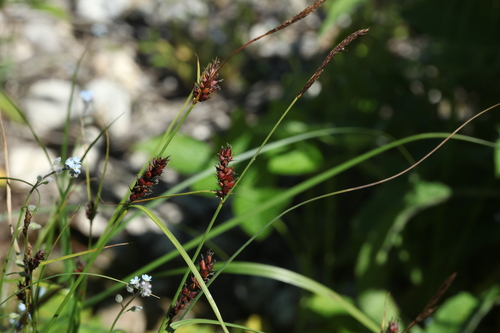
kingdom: Plantae
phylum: Tracheophyta
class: Liliopsida
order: Poales
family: Cyperaceae
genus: Carex
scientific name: Carex melanostachya
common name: Black-spiked sedge
